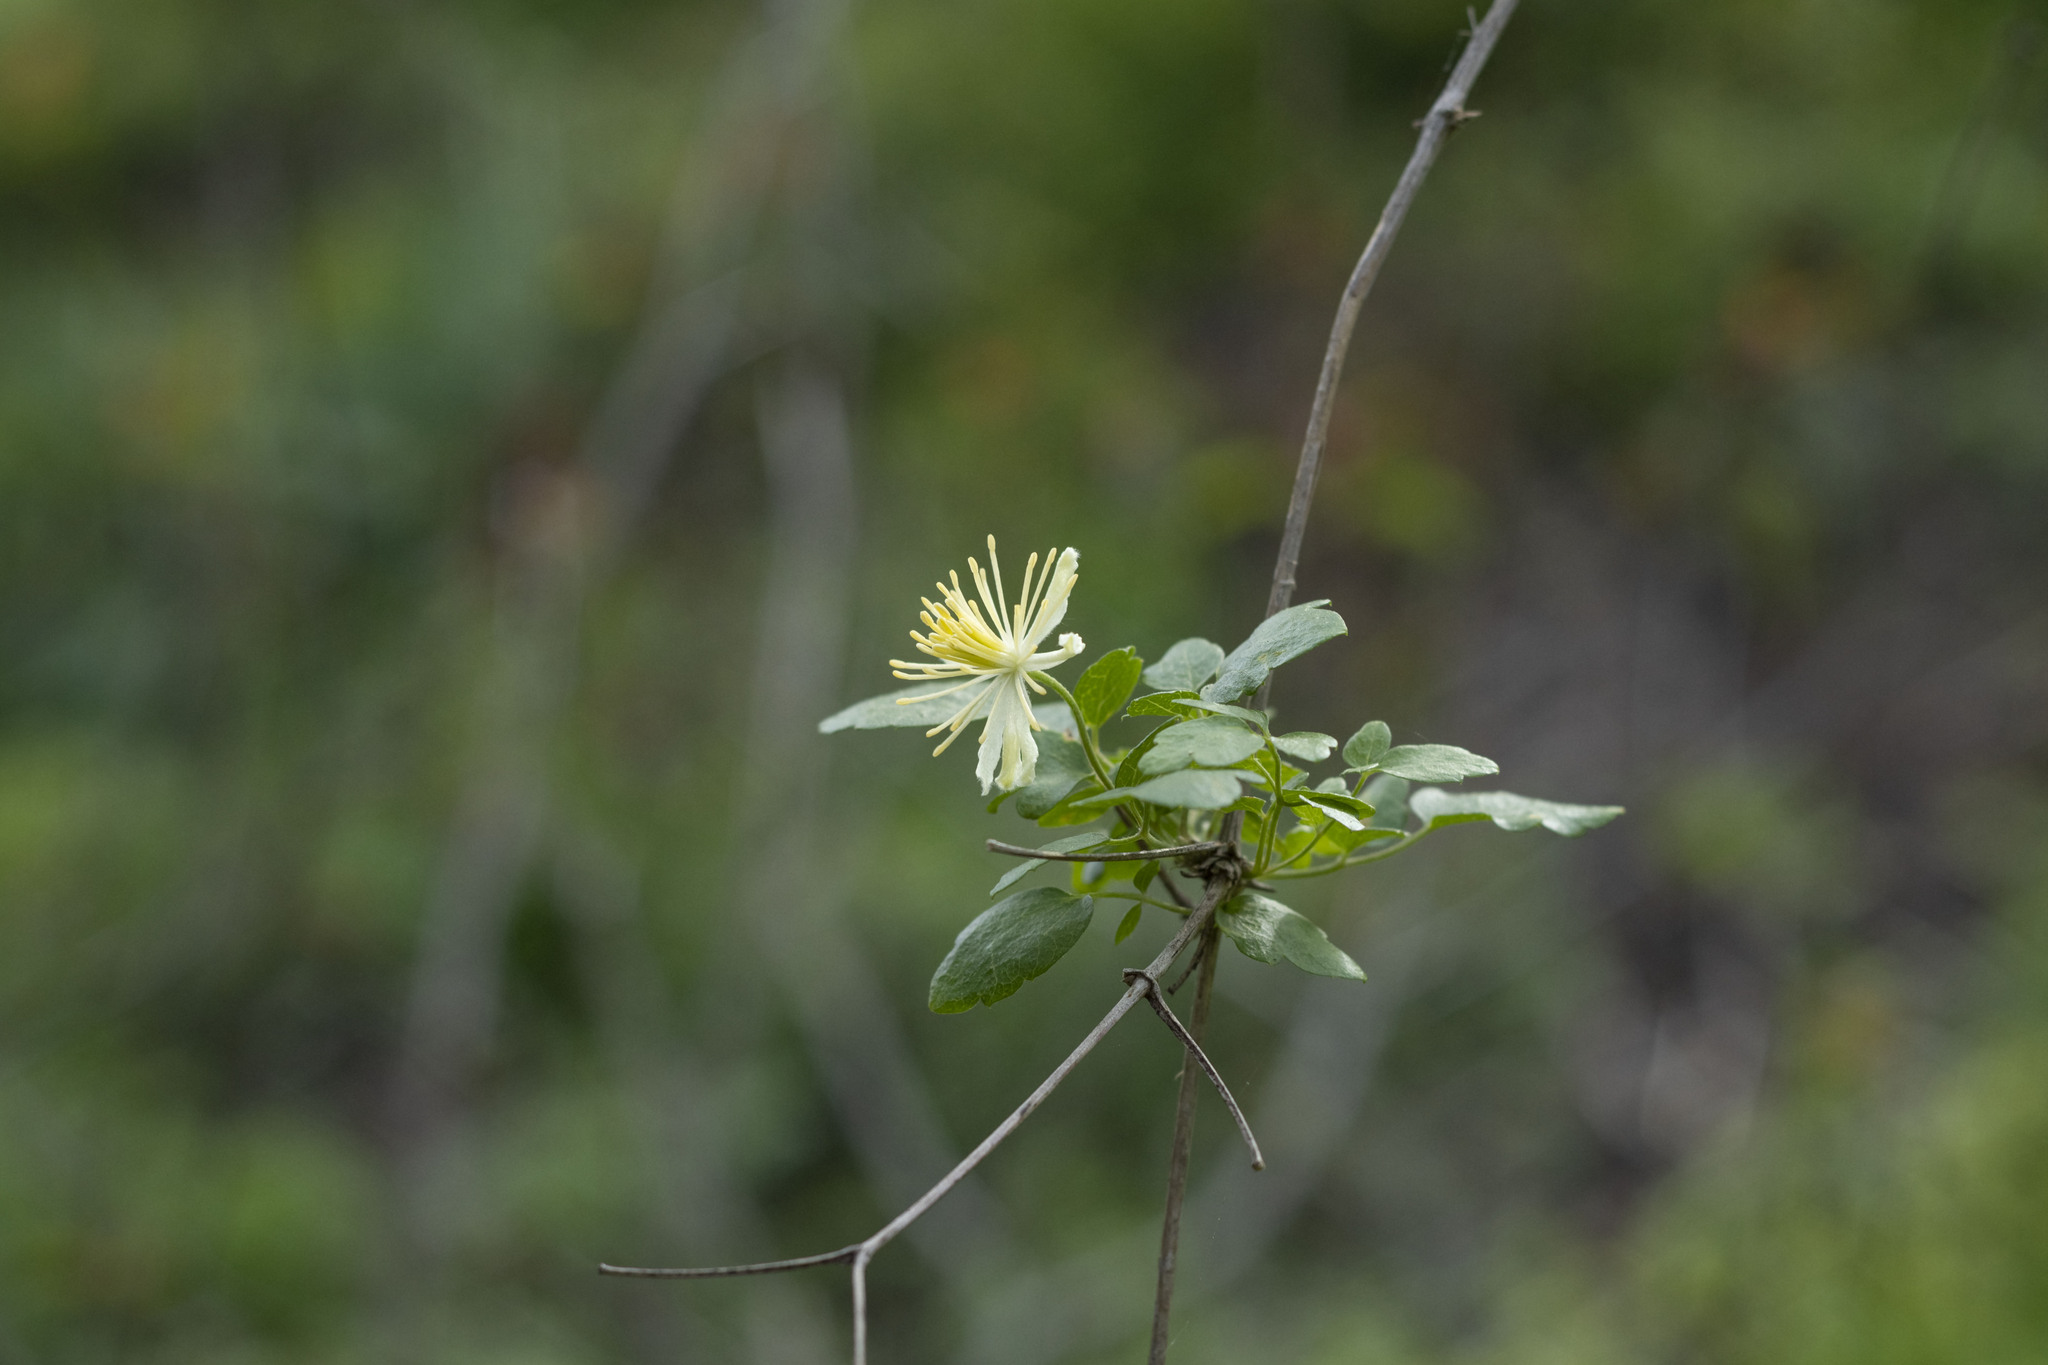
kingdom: Plantae
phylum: Tracheophyta
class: Magnoliopsida
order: Ranunculales
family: Ranunculaceae
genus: Clematis
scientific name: Clematis pauciflora
